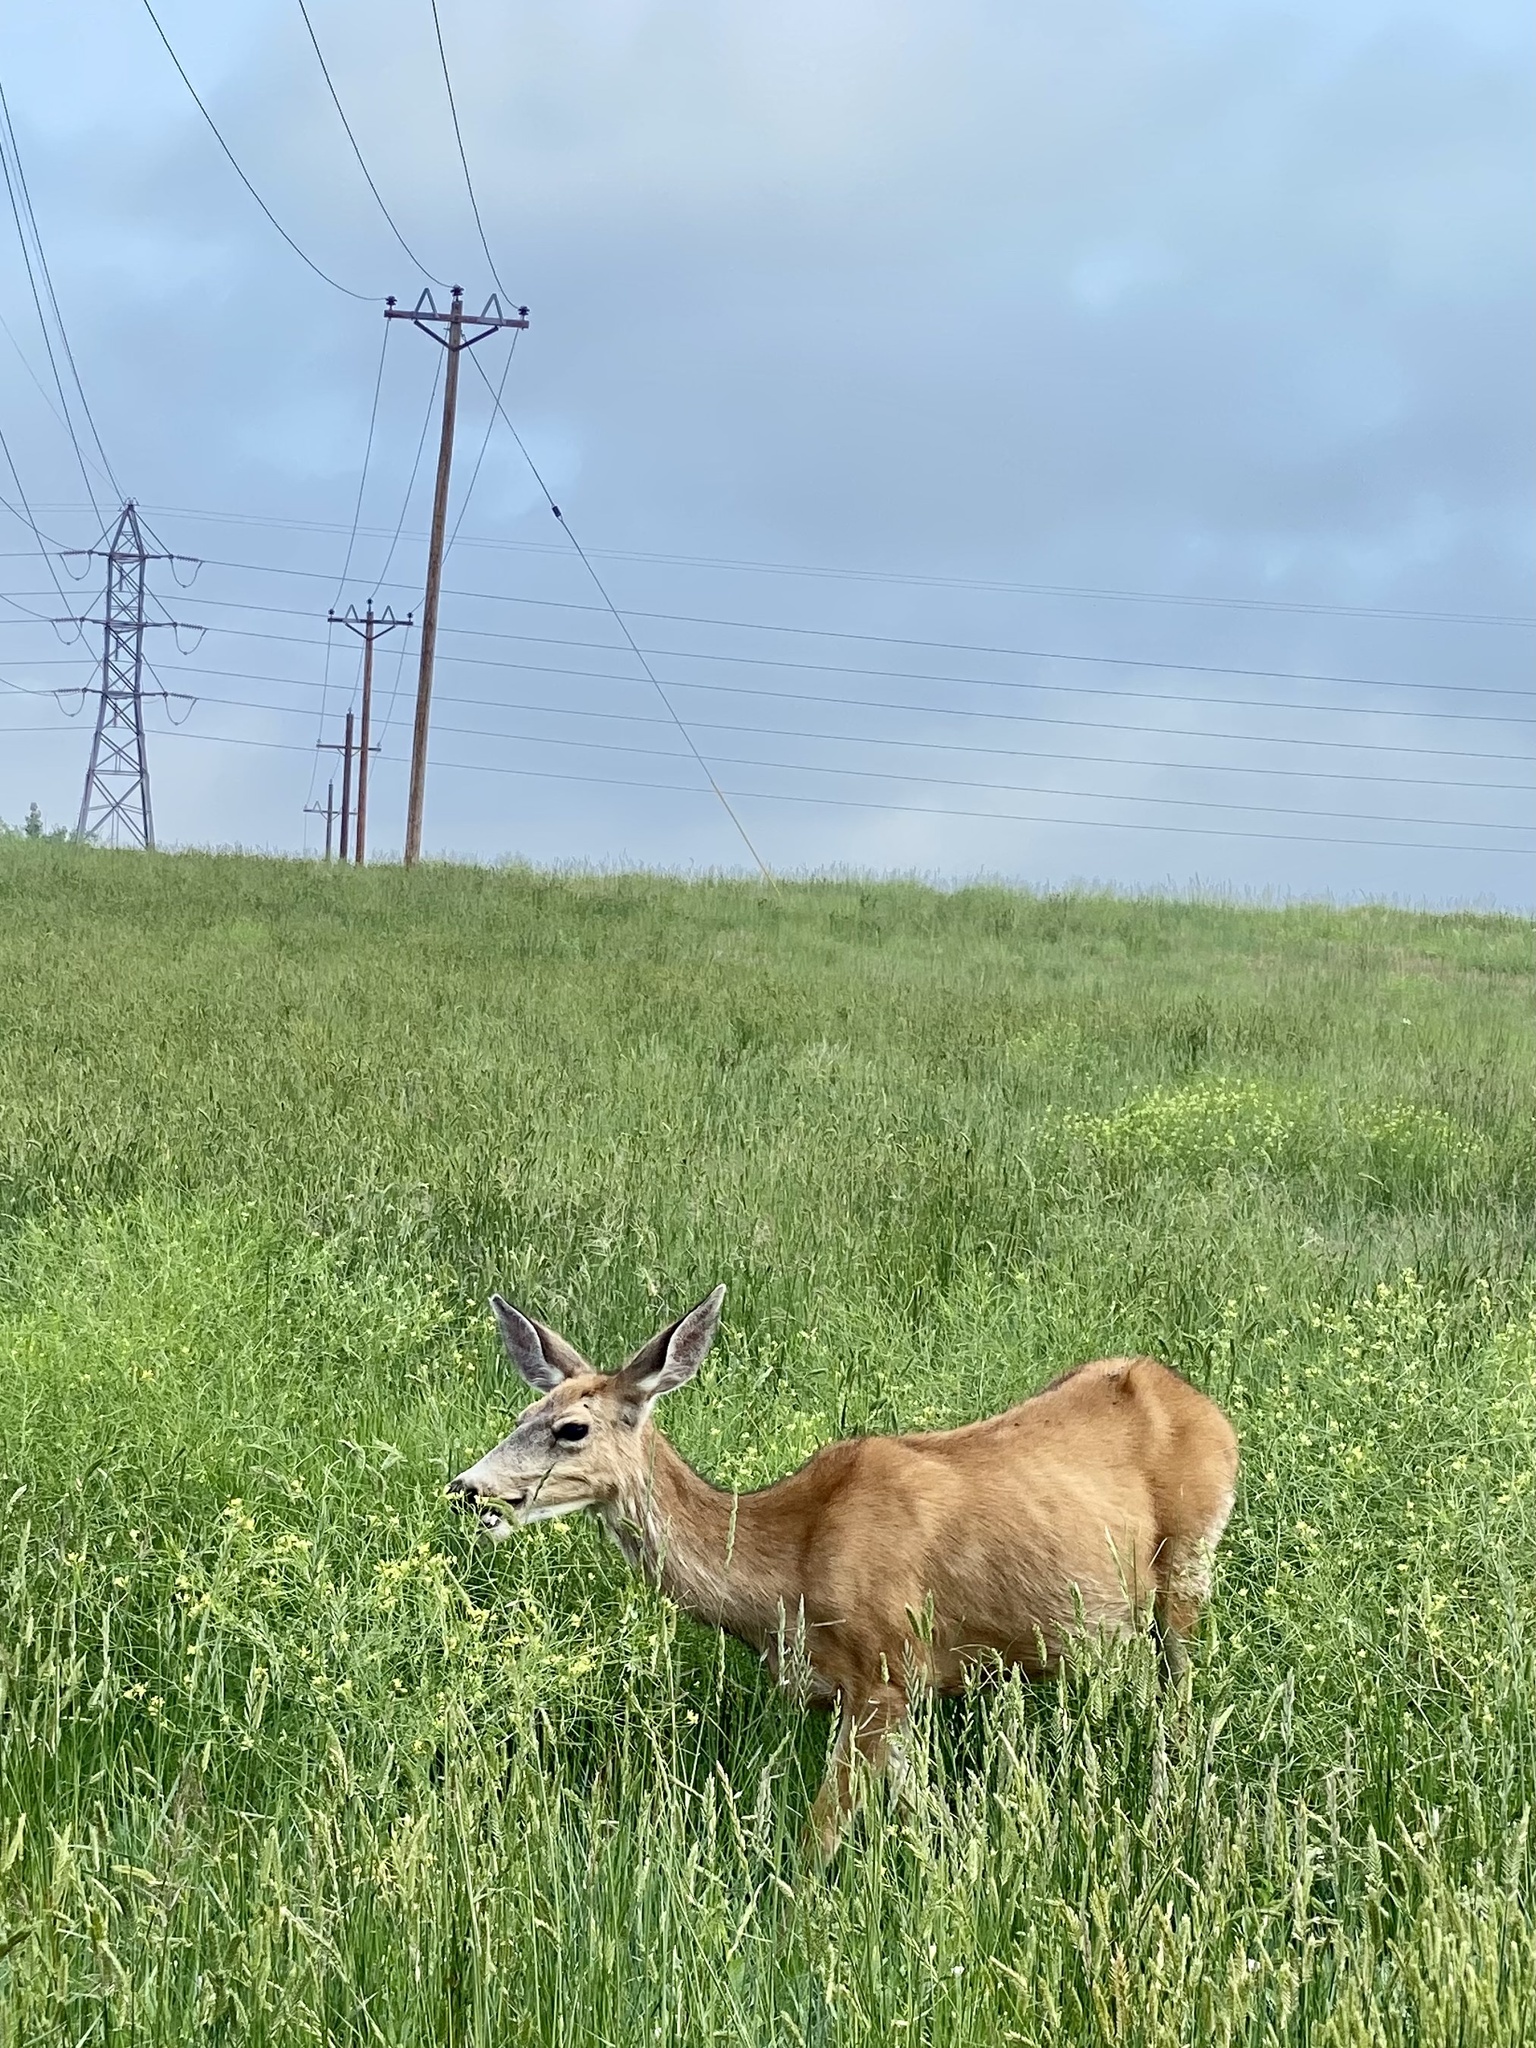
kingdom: Animalia
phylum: Chordata
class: Mammalia
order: Artiodactyla
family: Cervidae
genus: Odocoileus
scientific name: Odocoileus hemionus
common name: Mule deer
